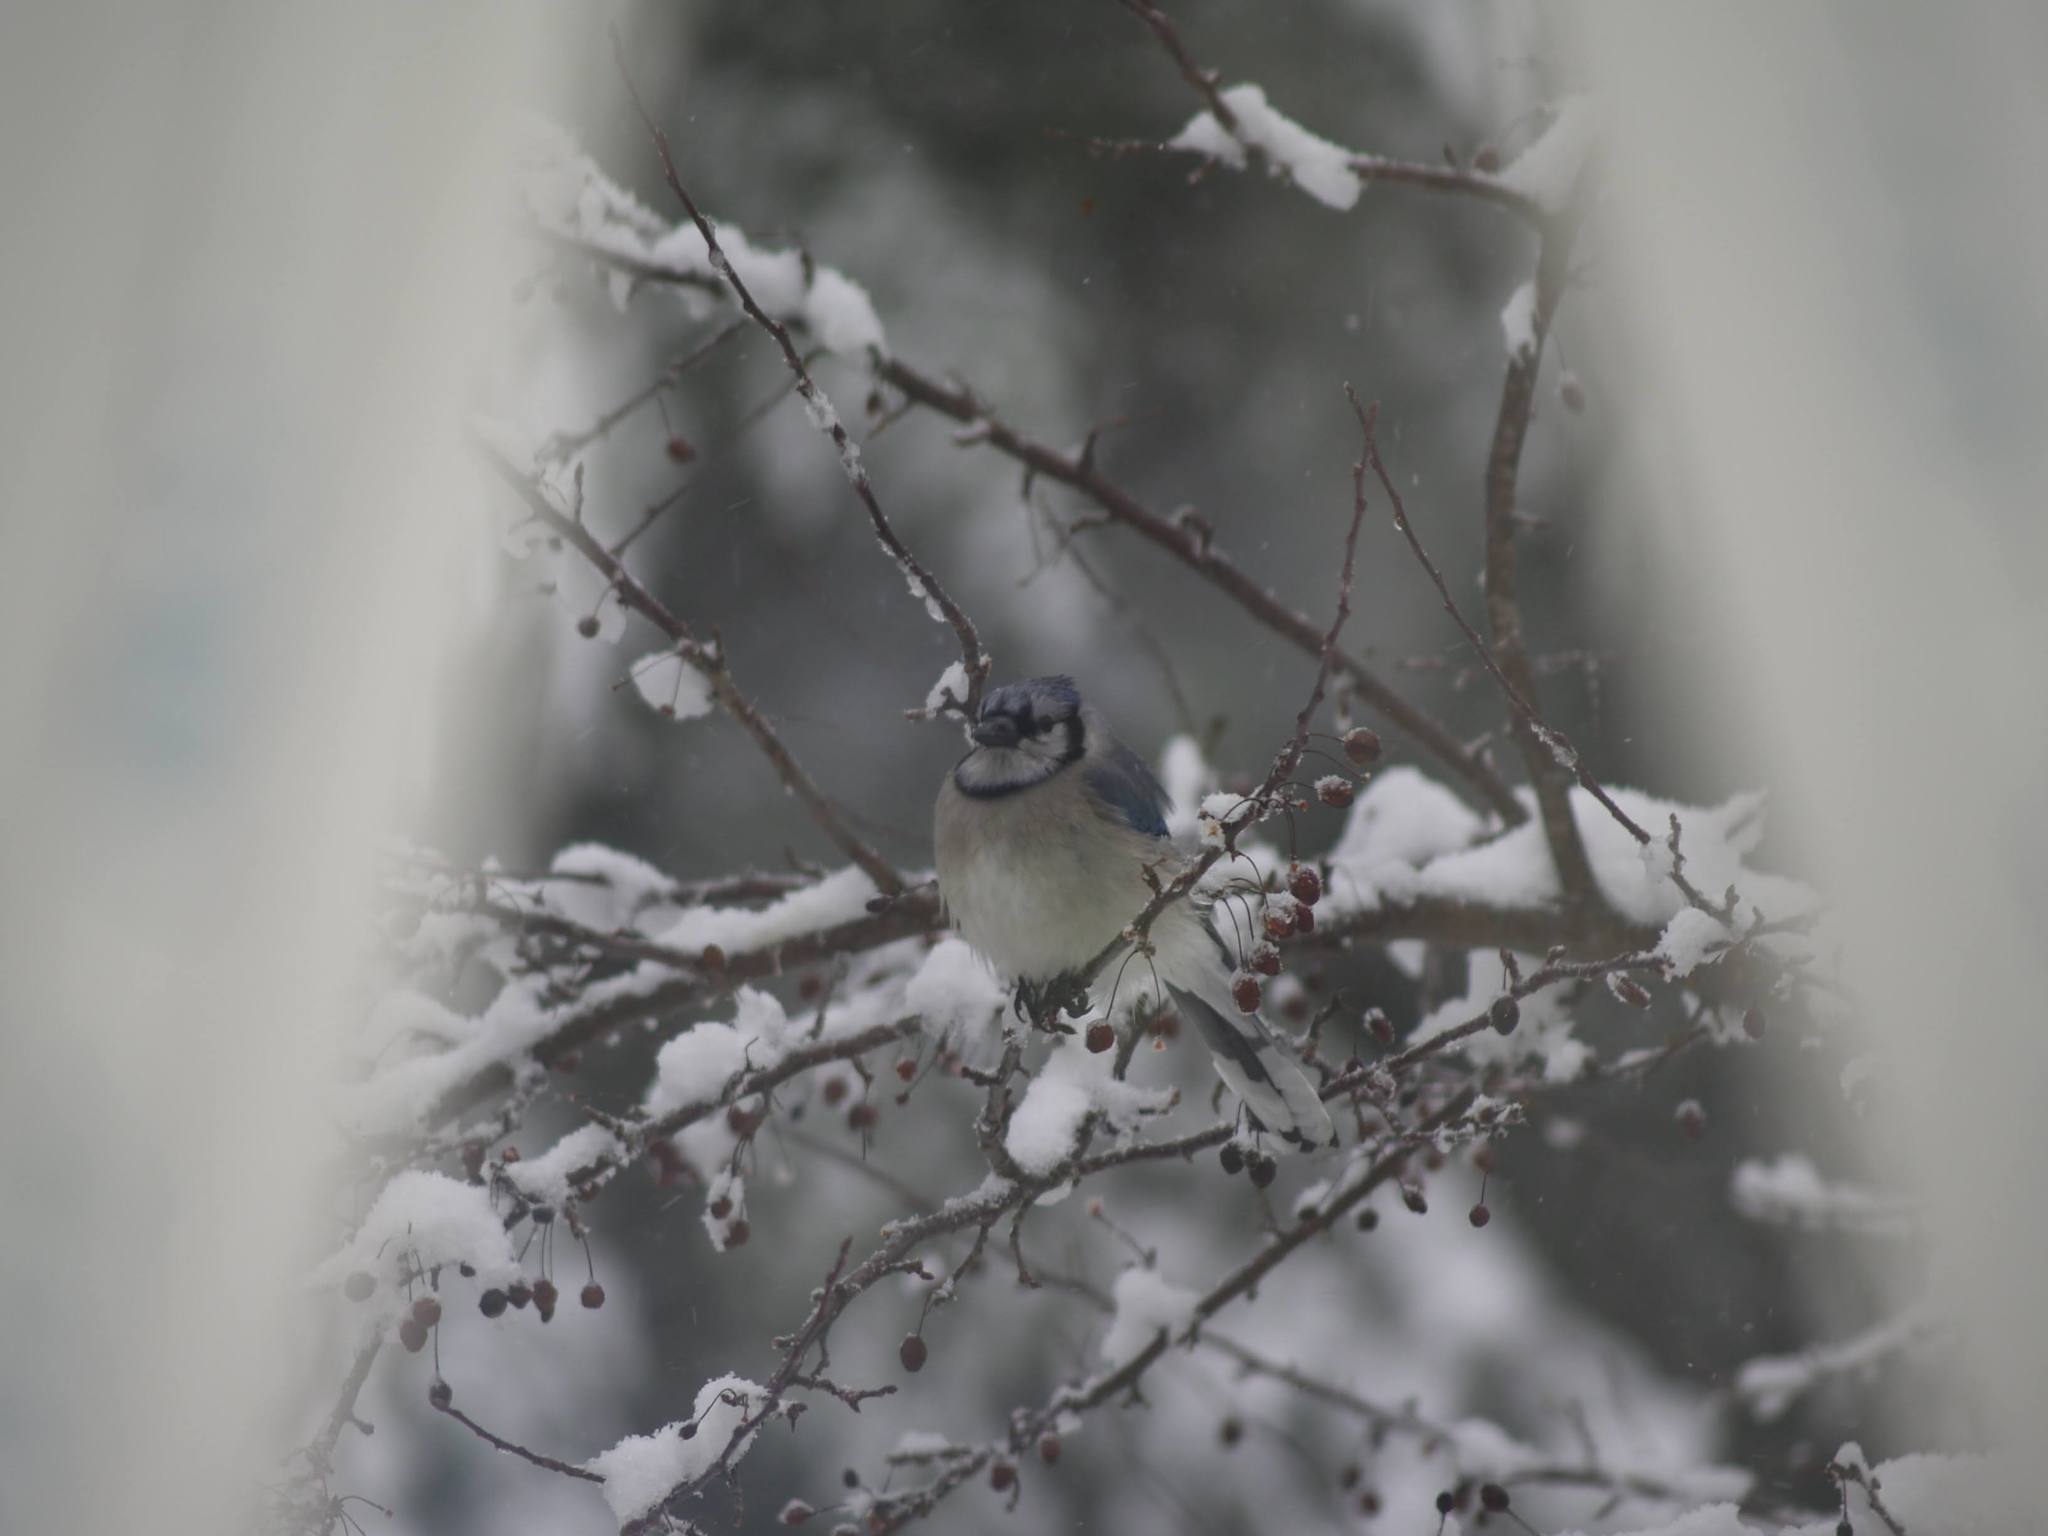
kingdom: Animalia
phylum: Chordata
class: Aves
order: Passeriformes
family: Corvidae
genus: Cyanocitta
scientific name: Cyanocitta cristata
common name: Blue jay
